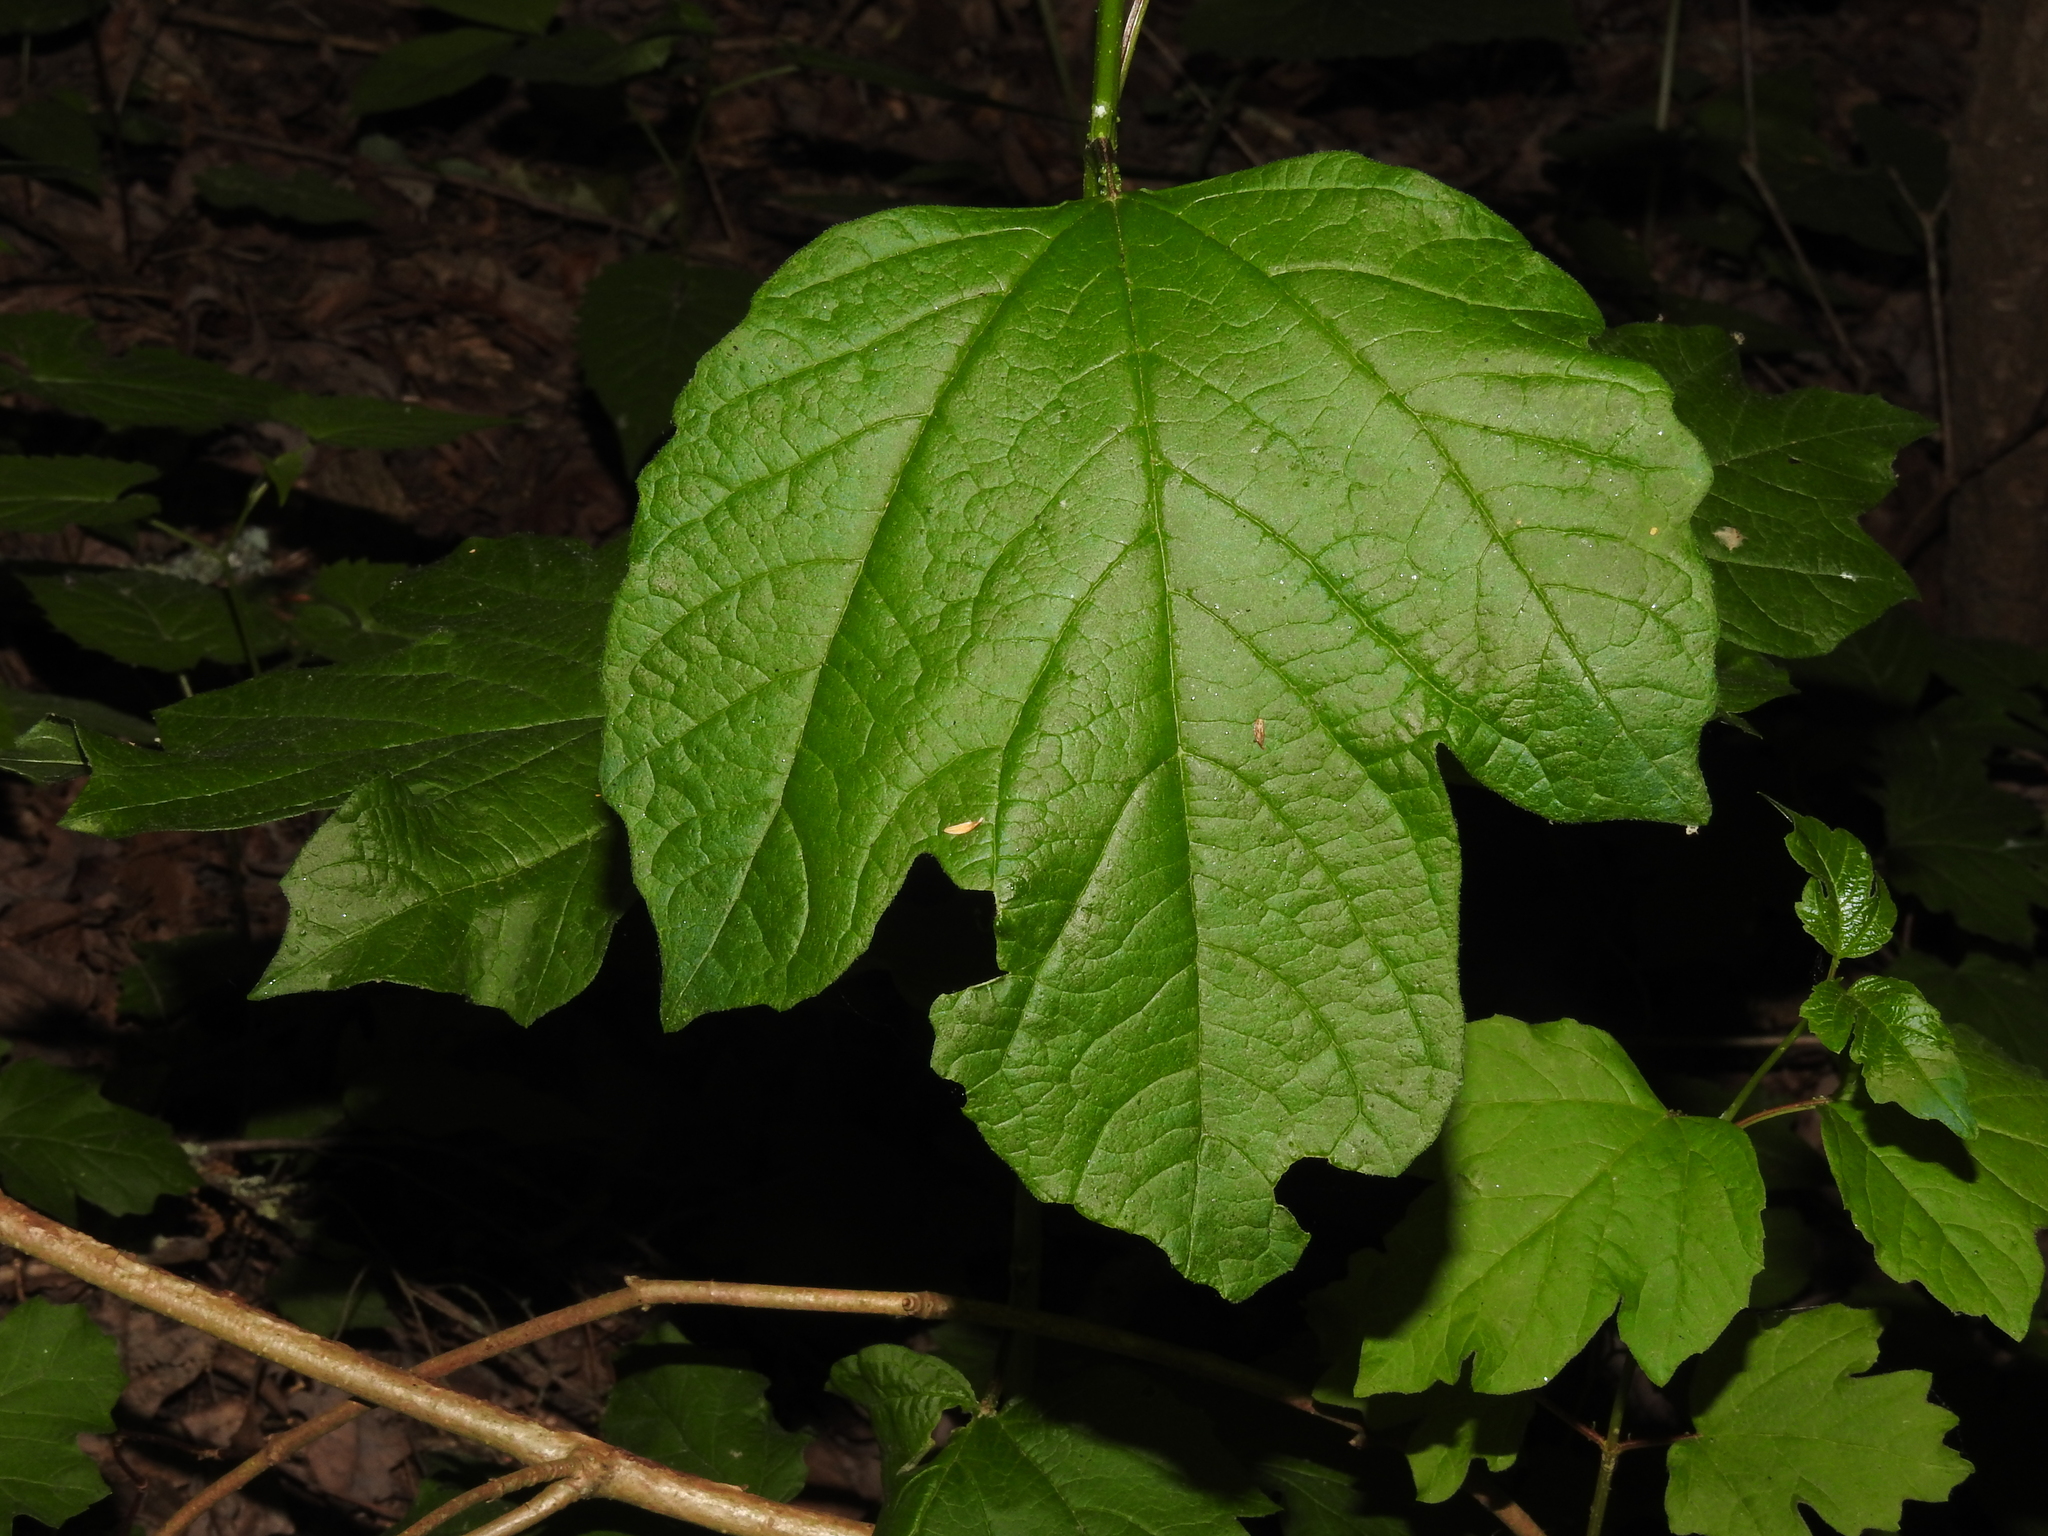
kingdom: Plantae
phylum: Tracheophyta
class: Magnoliopsida
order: Dipsacales
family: Viburnaceae
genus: Viburnum
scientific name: Viburnum opulus
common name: Guelder-rose
